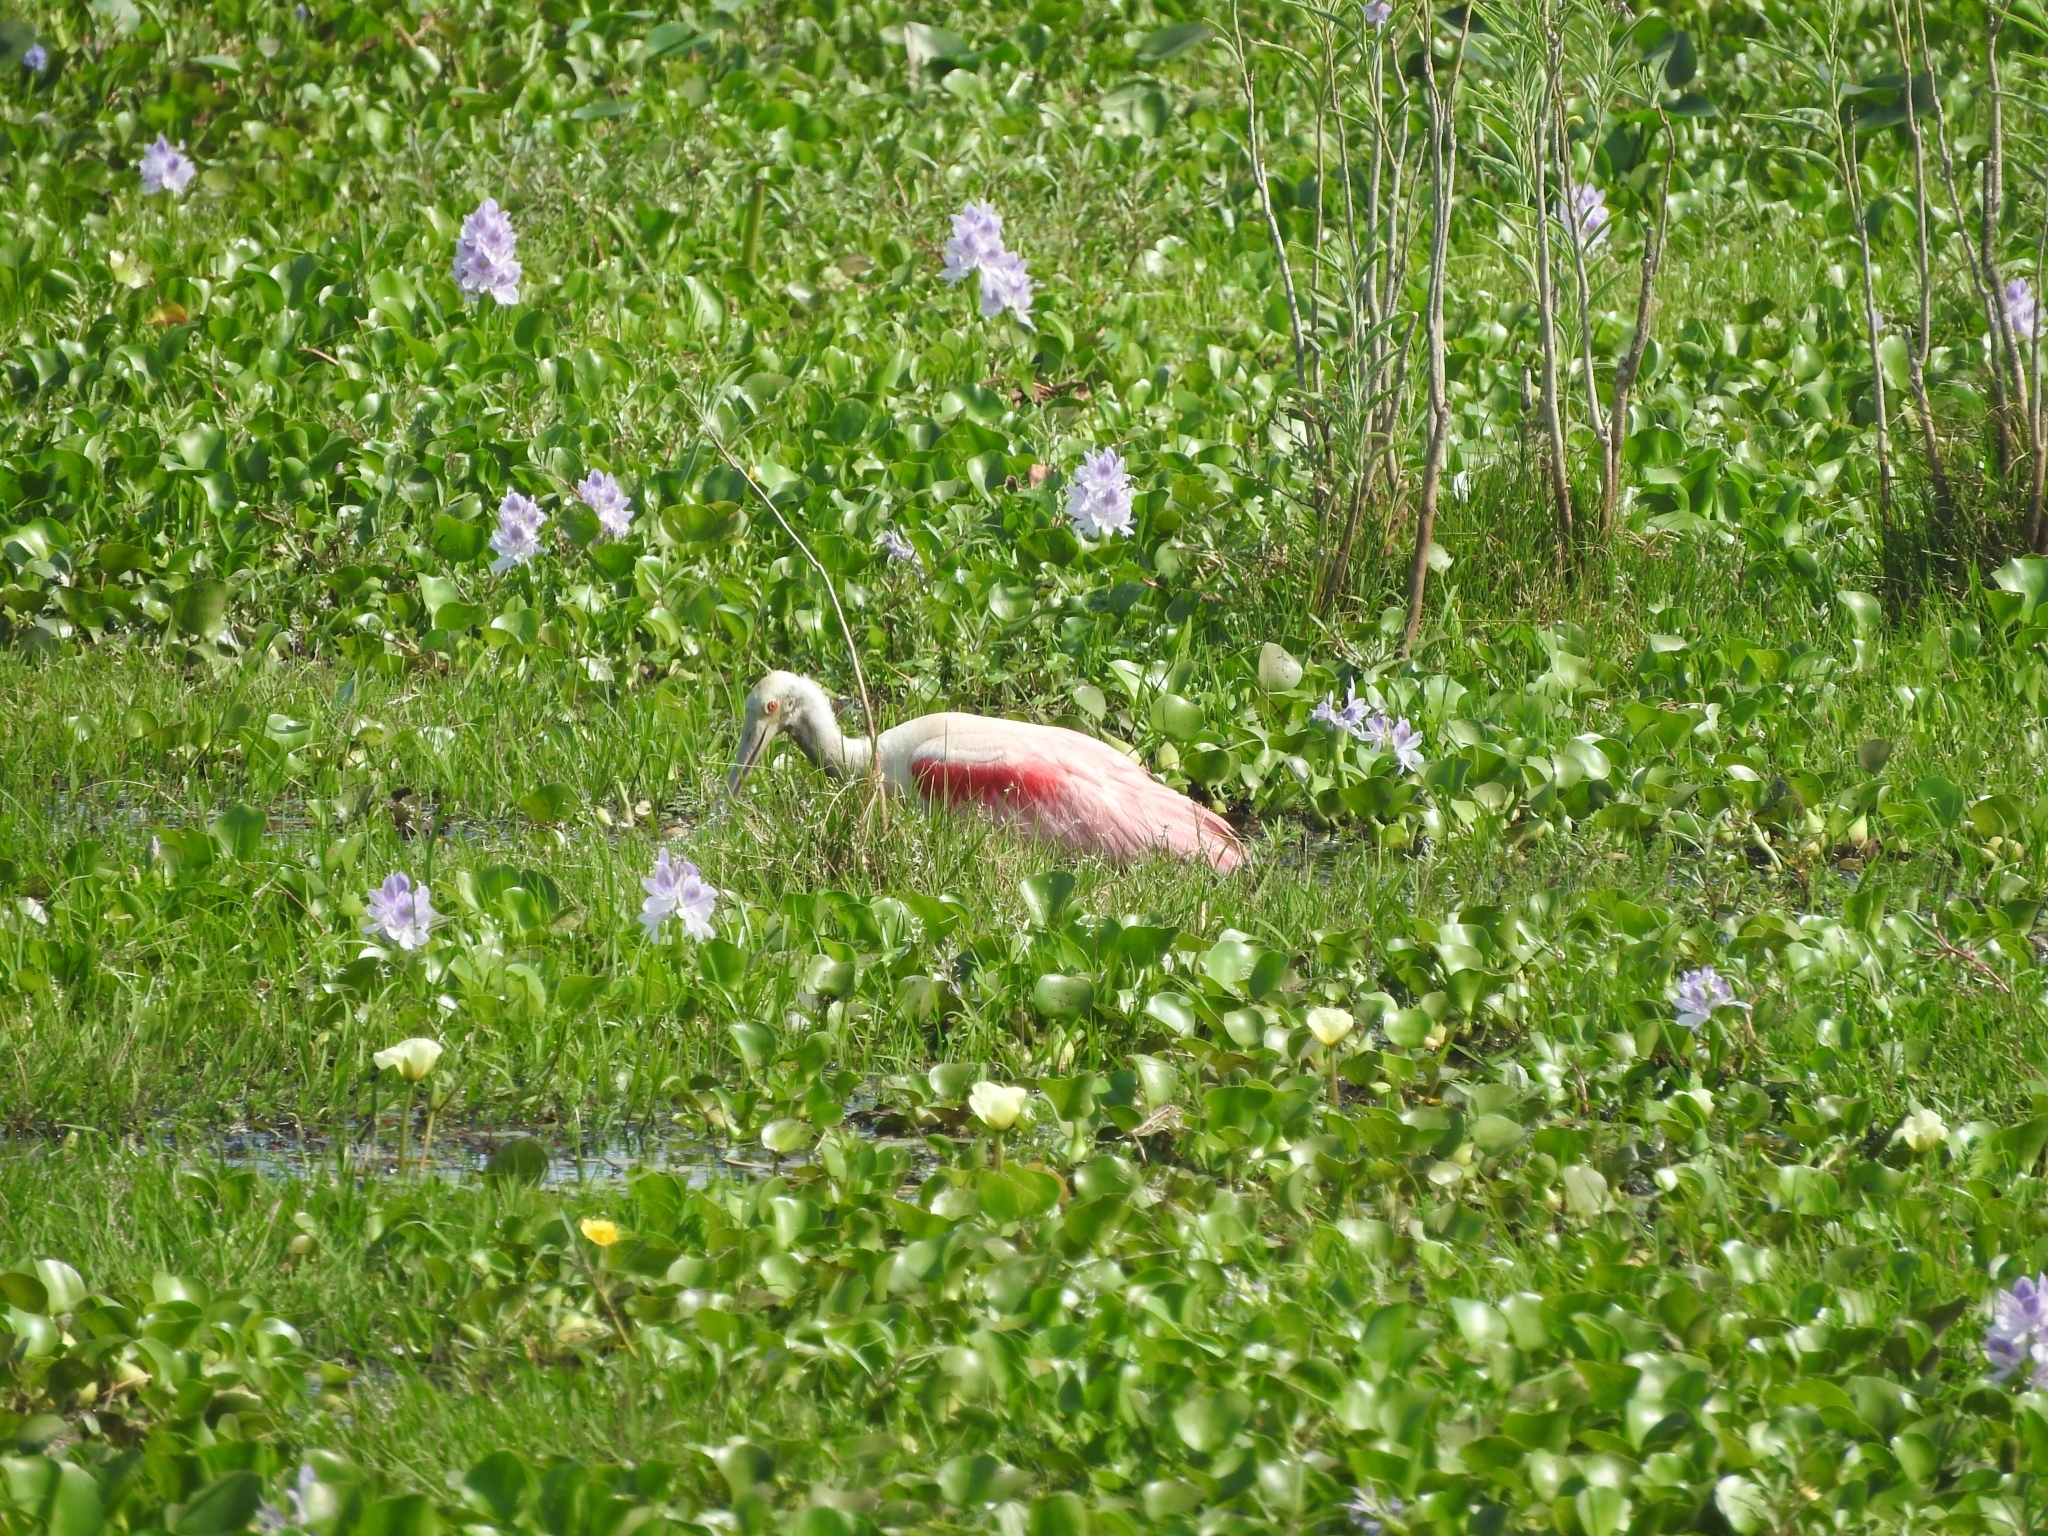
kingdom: Animalia
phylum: Chordata
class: Aves
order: Pelecaniformes
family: Threskiornithidae
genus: Platalea
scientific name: Platalea ajaja
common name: Roseate spoonbill
